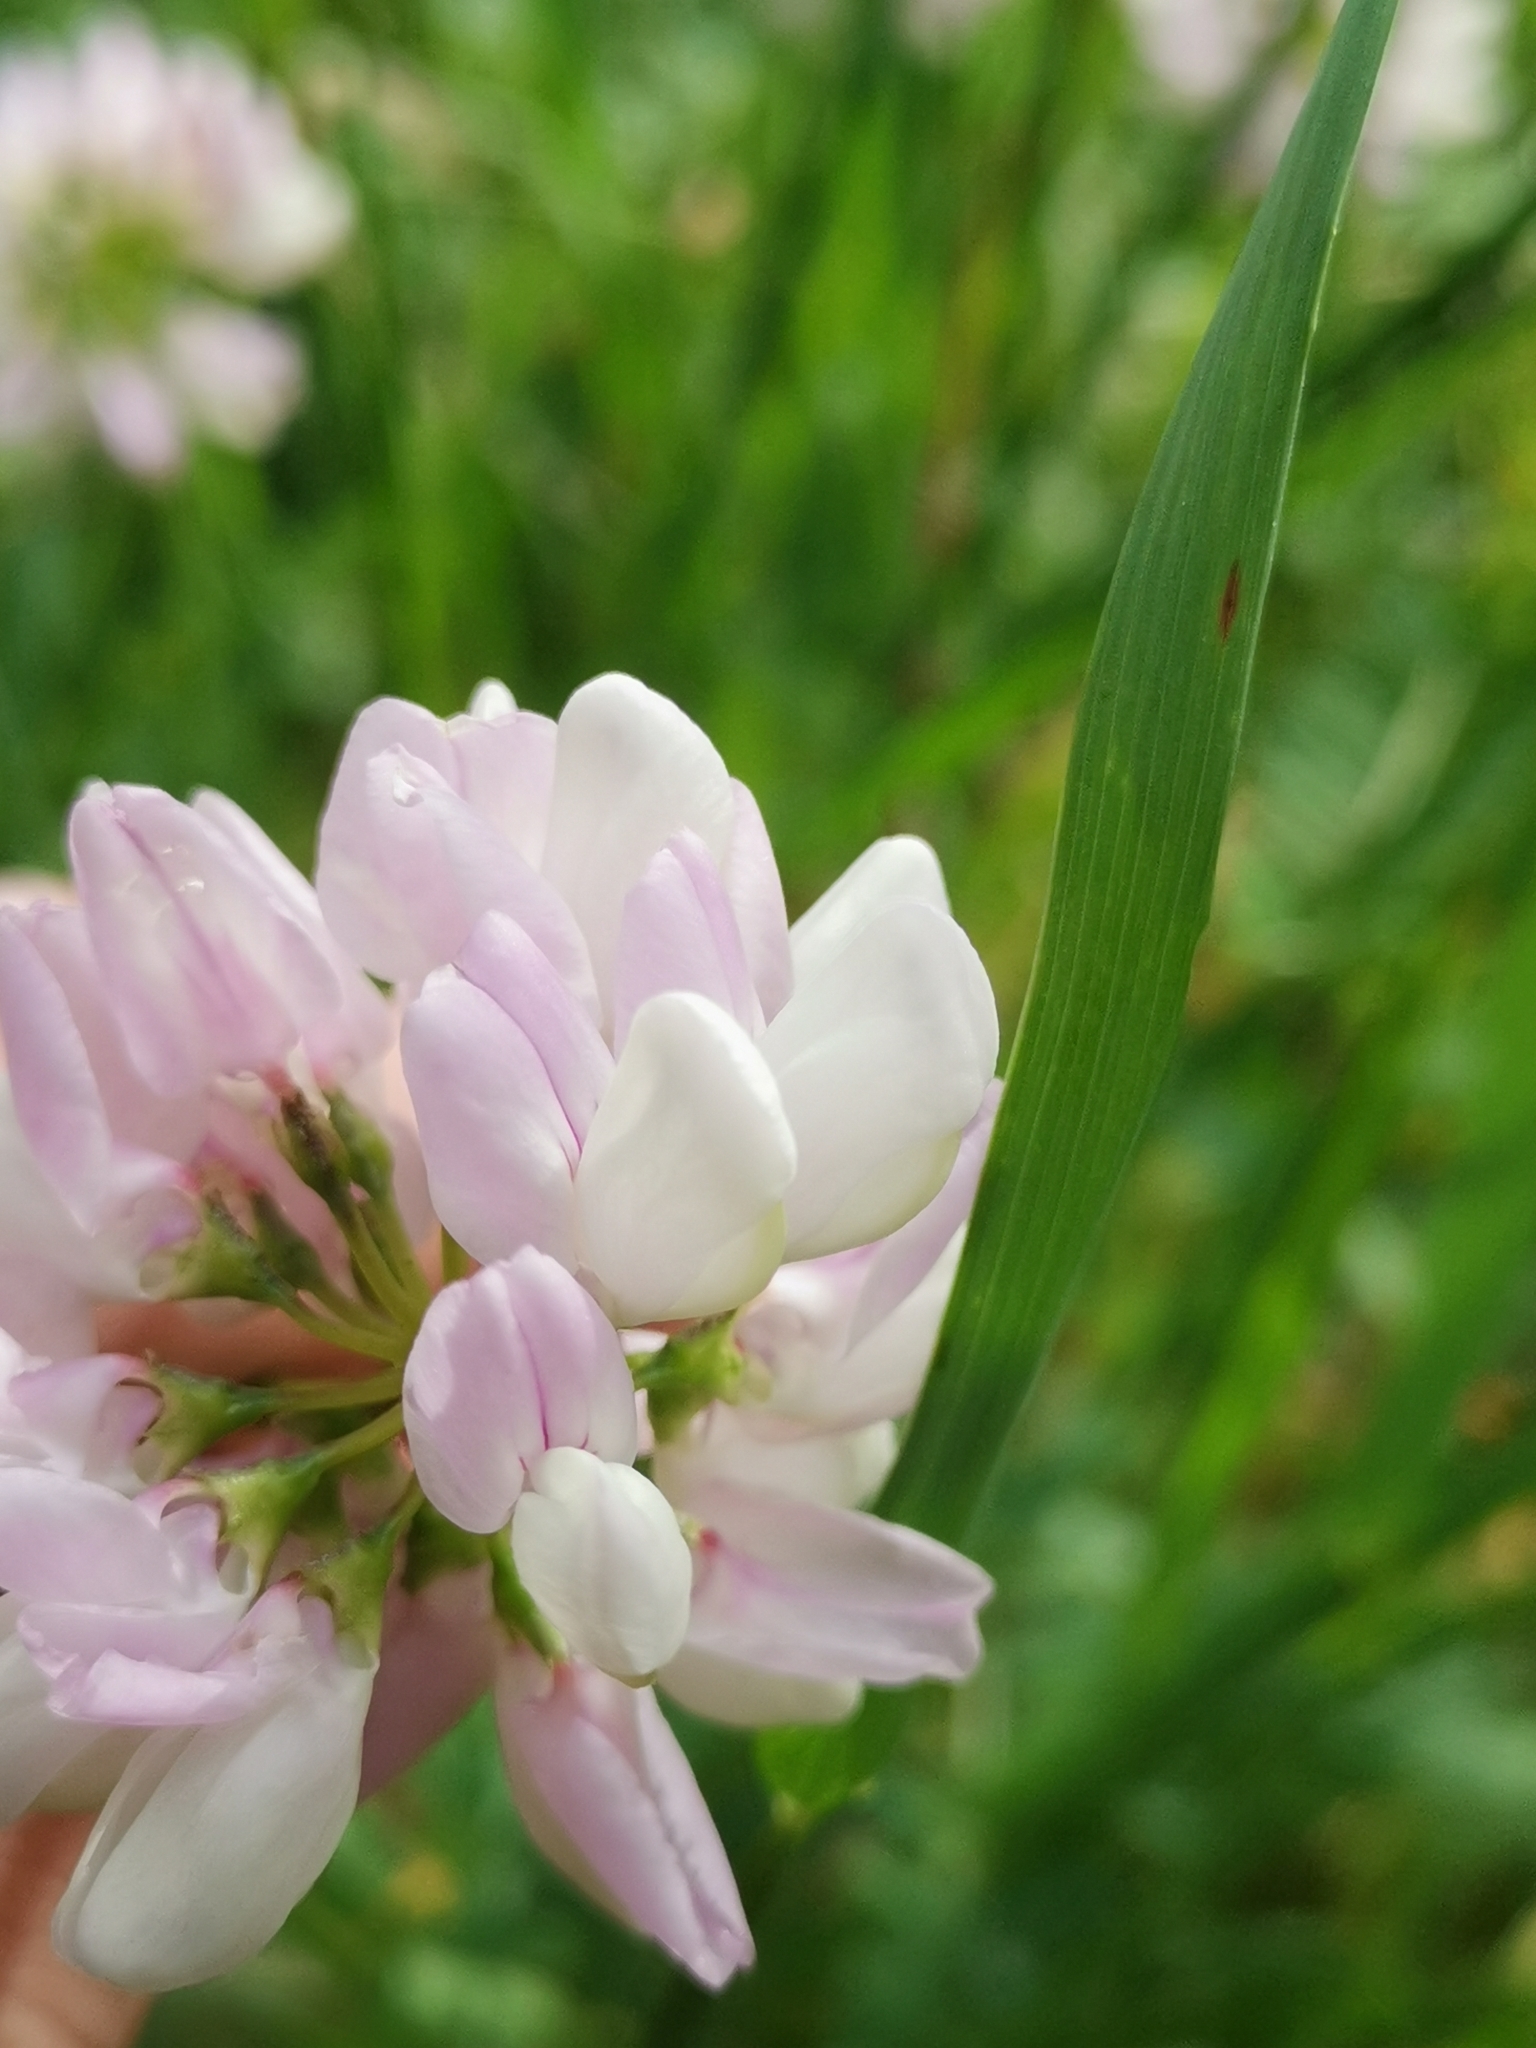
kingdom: Plantae
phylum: Tracheophyta
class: Magnoliopsida
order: Fabales
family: Fabaceae
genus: Coronilla
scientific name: Coronilla varia
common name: Crownvetch
